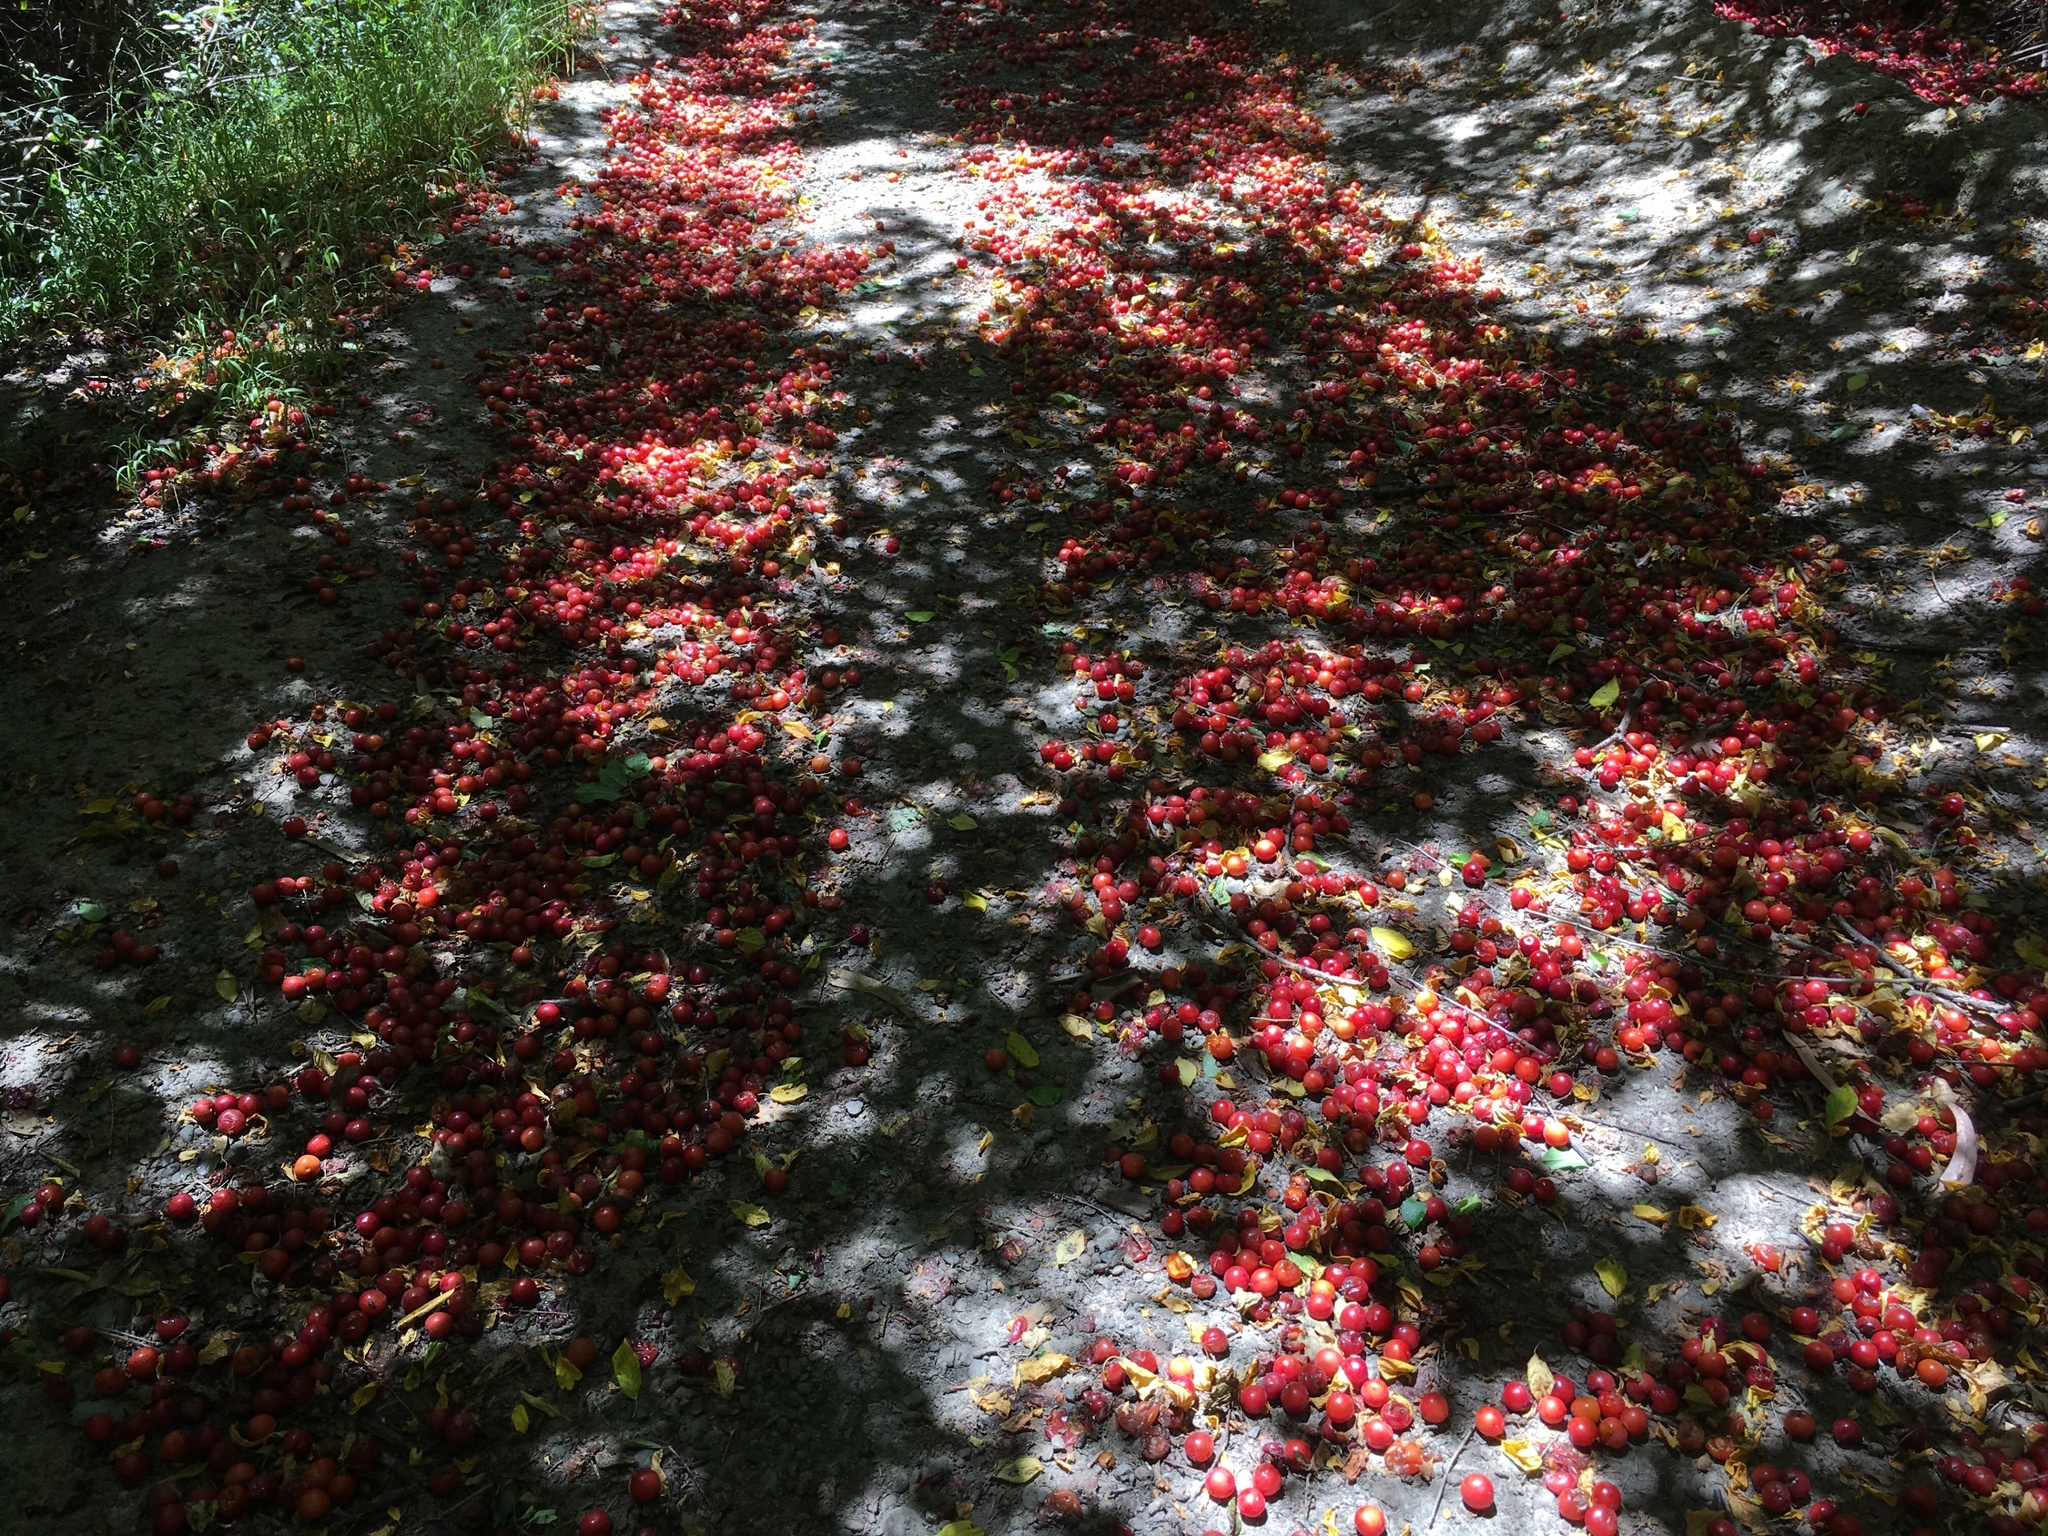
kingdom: Plantae
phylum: Tracheophyta
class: Magnoliopsida
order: Rosales
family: Rosaceae
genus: Prunus
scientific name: Prunus cerasifera
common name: Cherry plum
